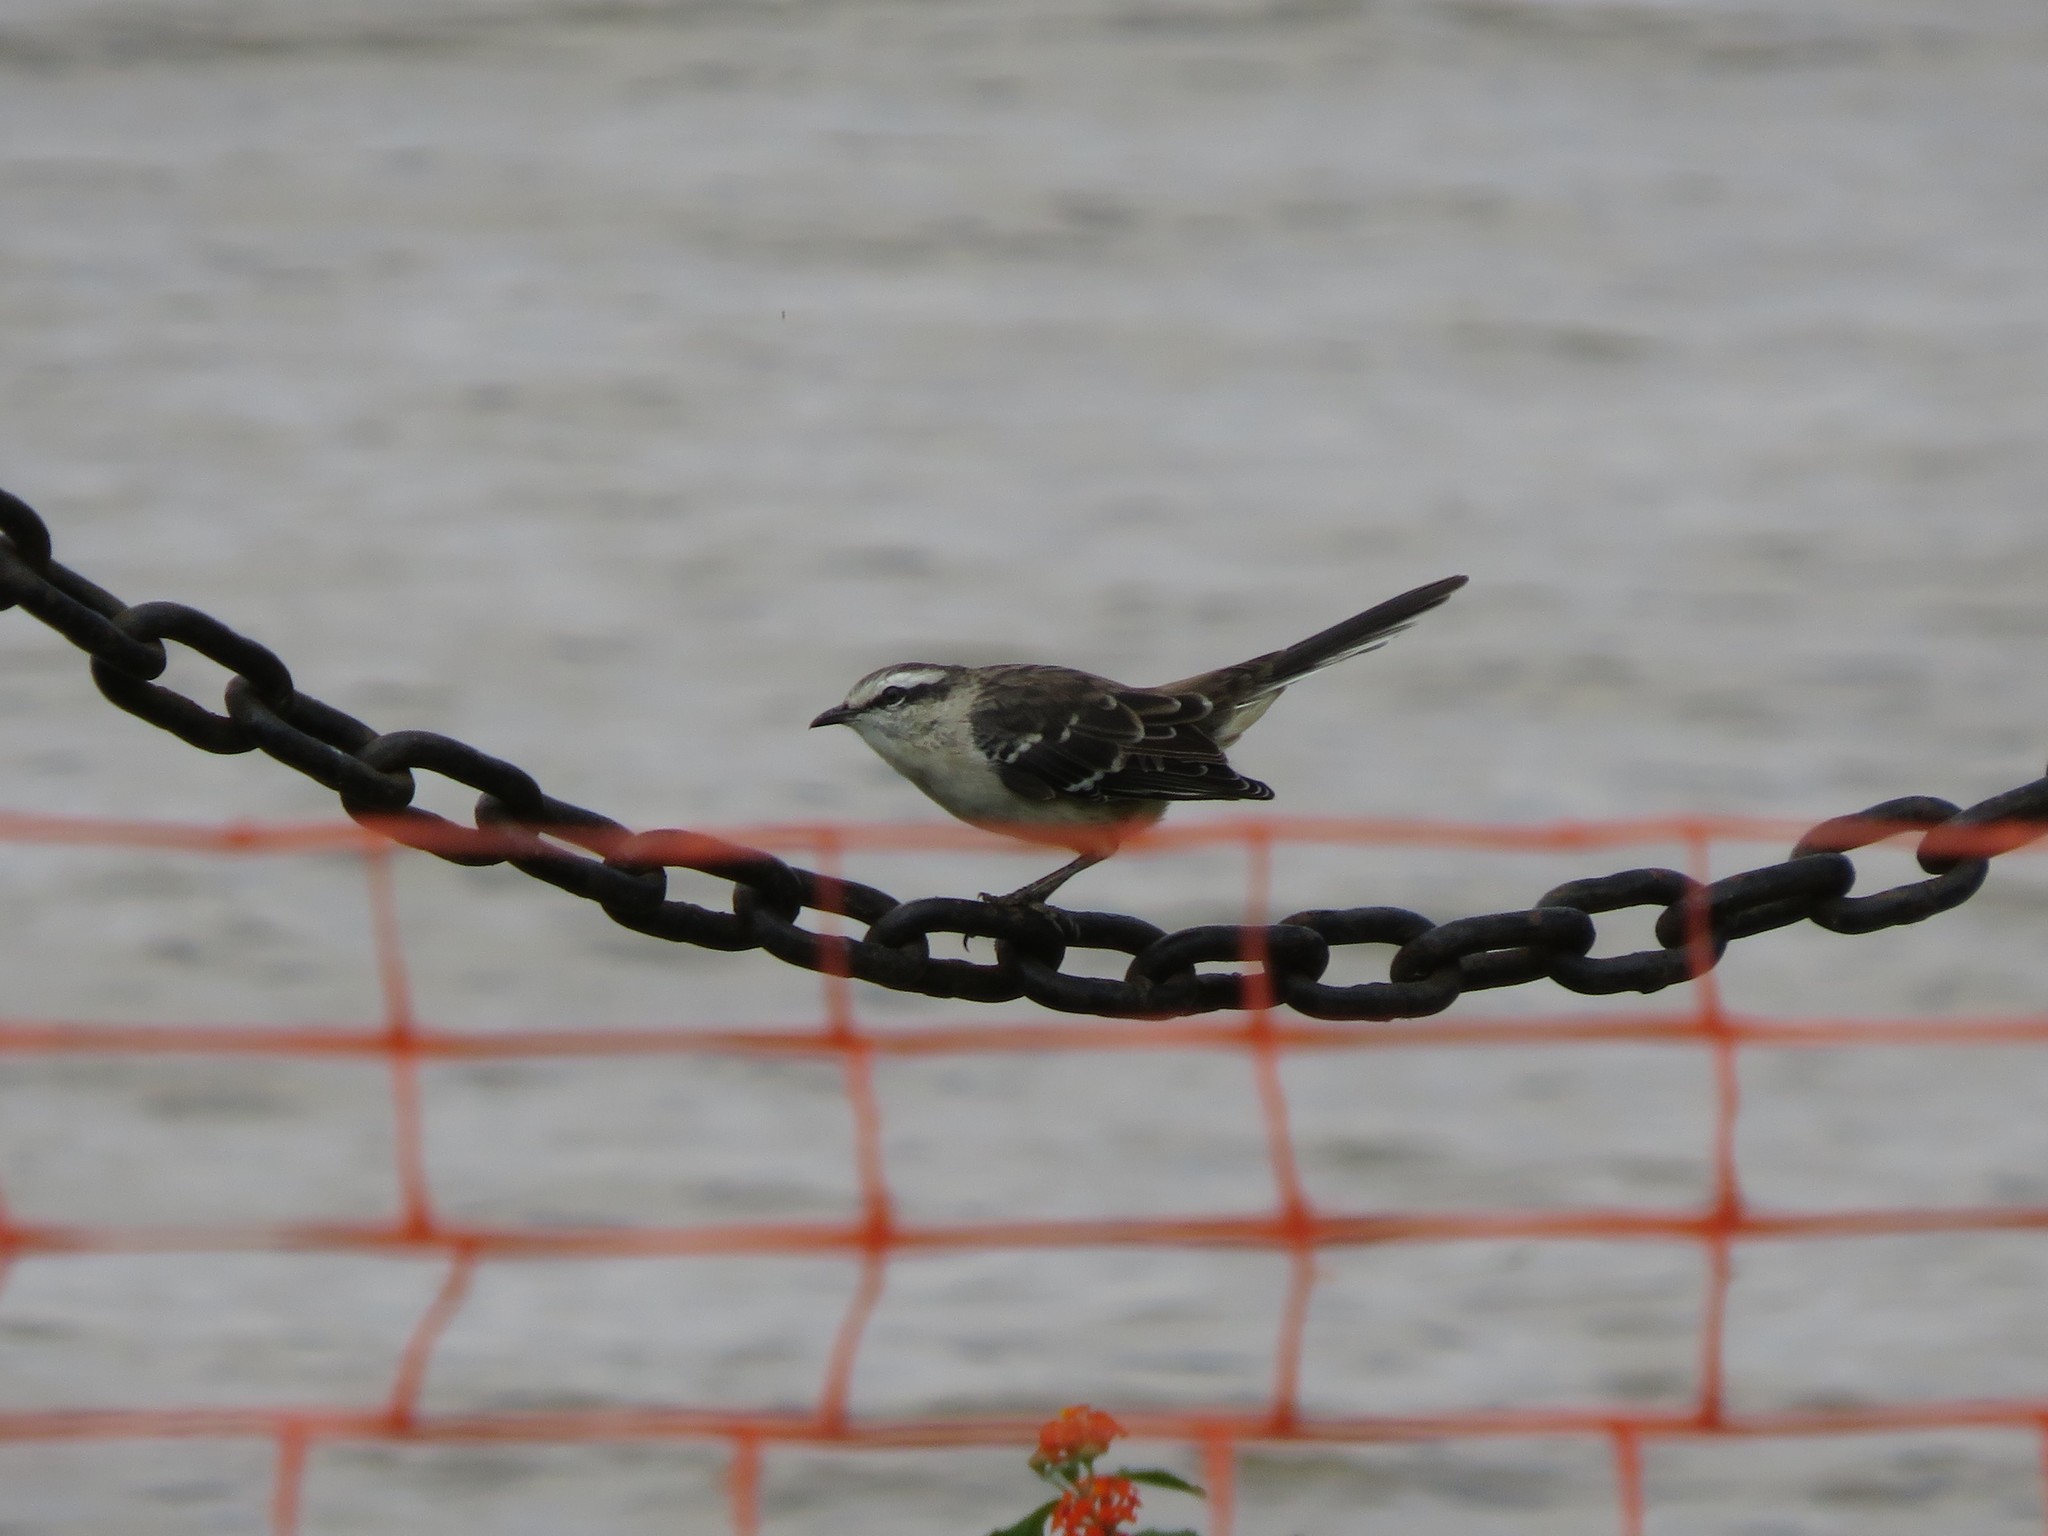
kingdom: Animalia
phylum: Chordata
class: Aves
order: Passeriformes
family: Mimidae
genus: Mimus
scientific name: Mimus saturninus
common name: Chalk-browed mockingbird
